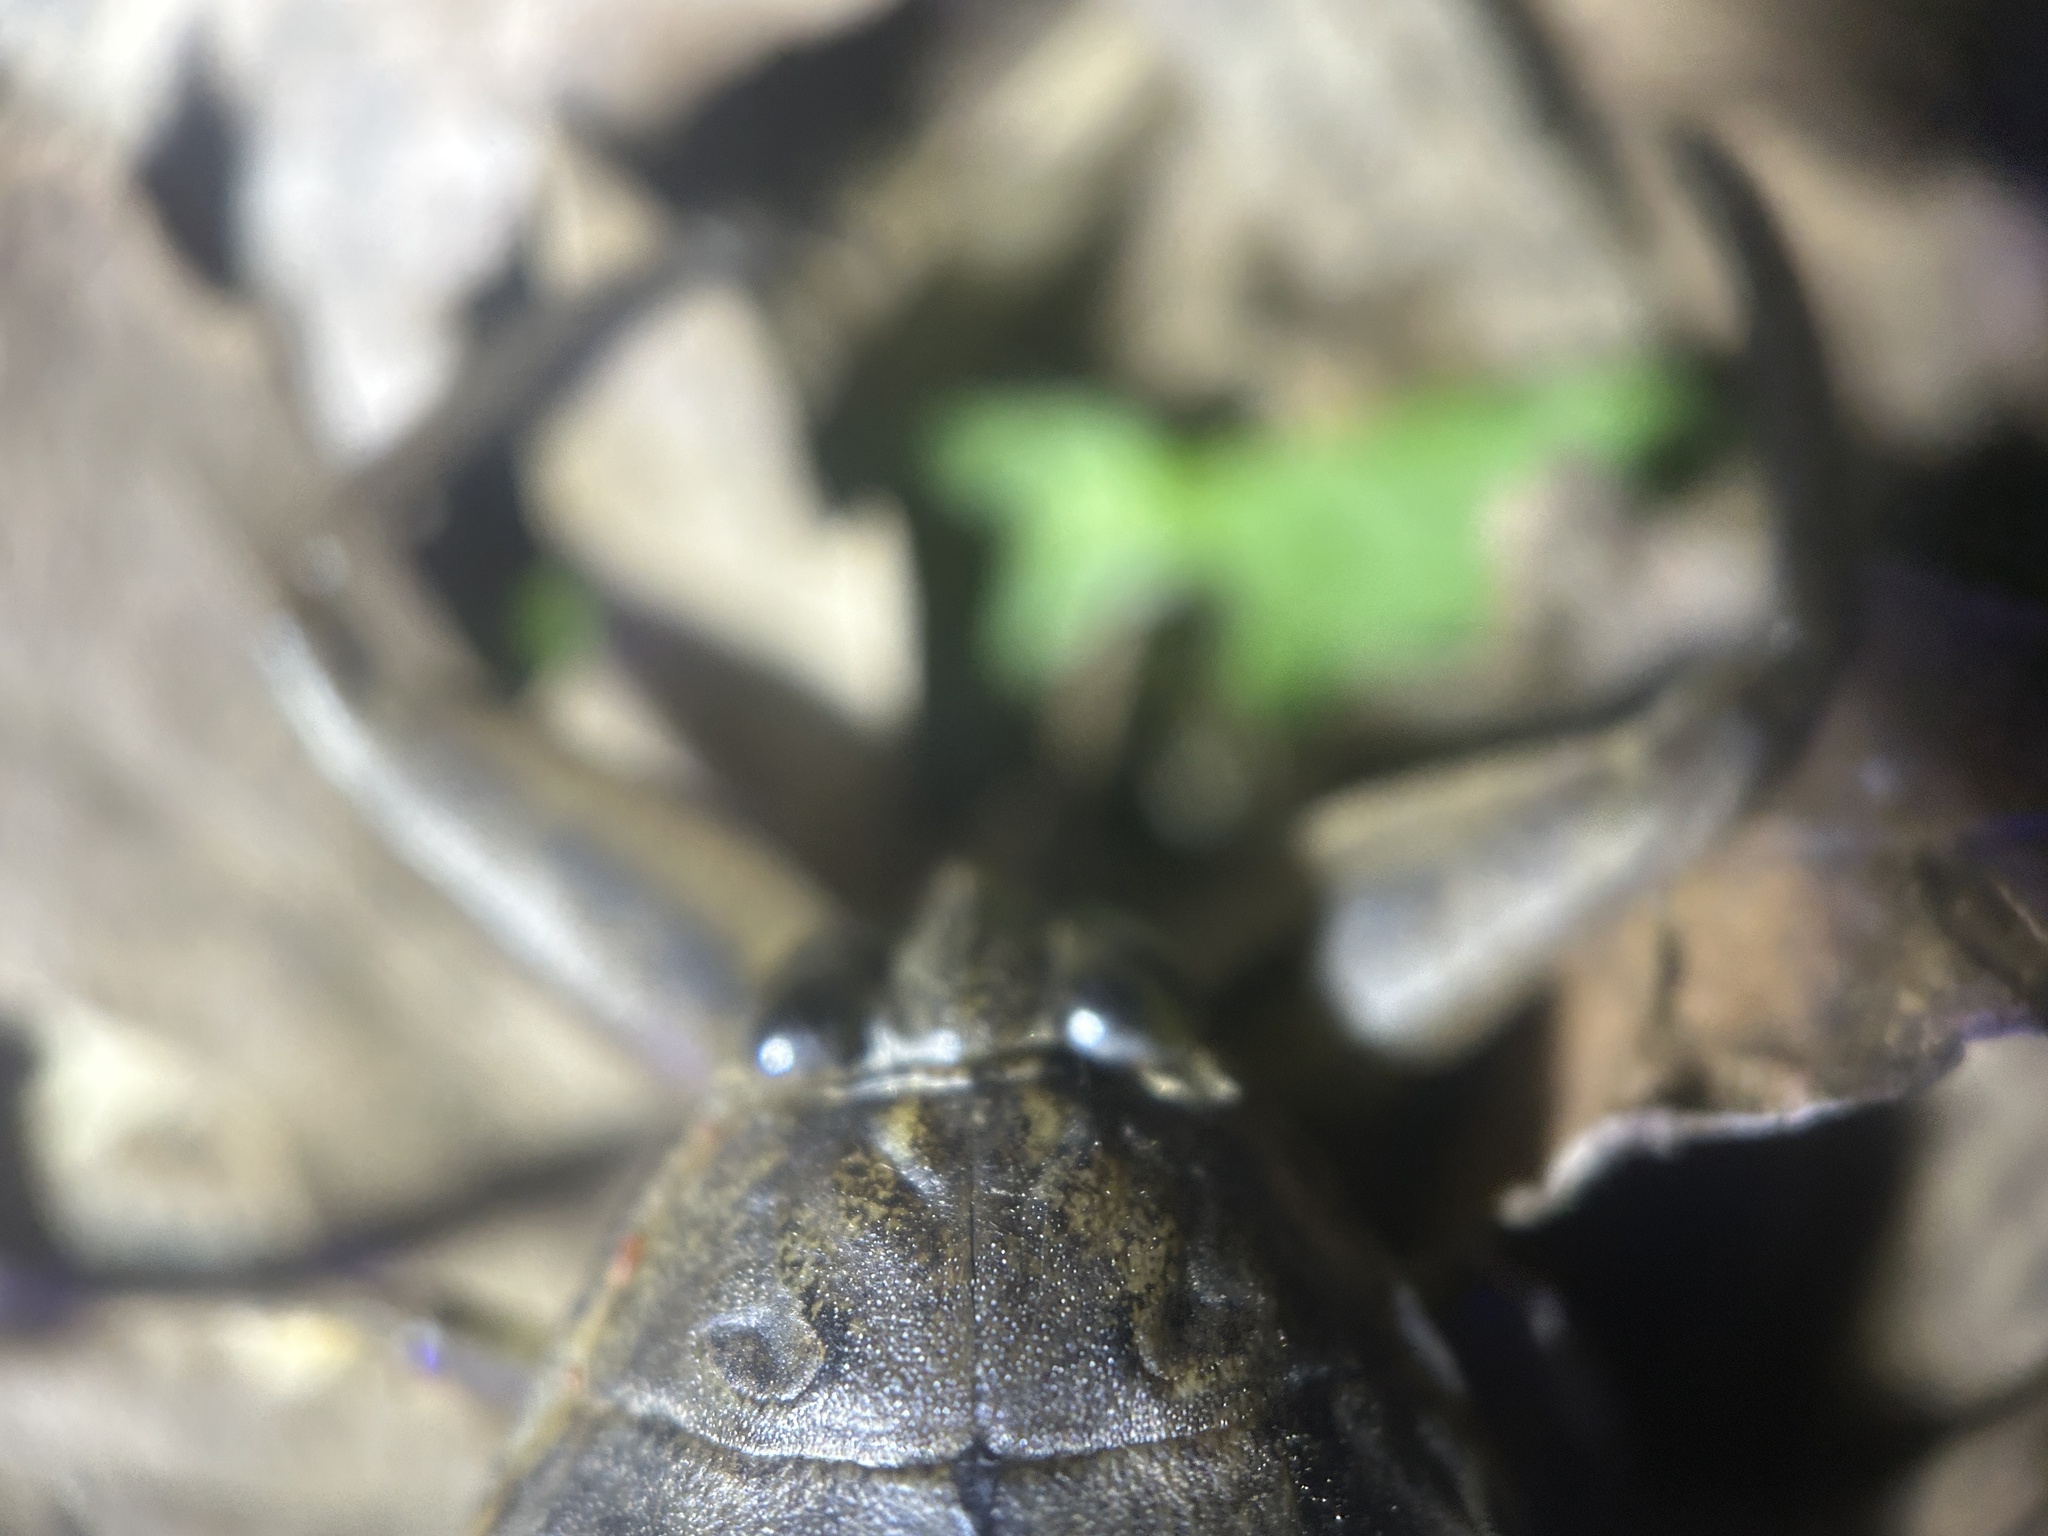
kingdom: Animalia
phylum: Arthropoda
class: Insecta
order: Hemiptera
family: Belostomatidae
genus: Lethocerus
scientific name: Lethocerus americanus
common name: Giant water bug
